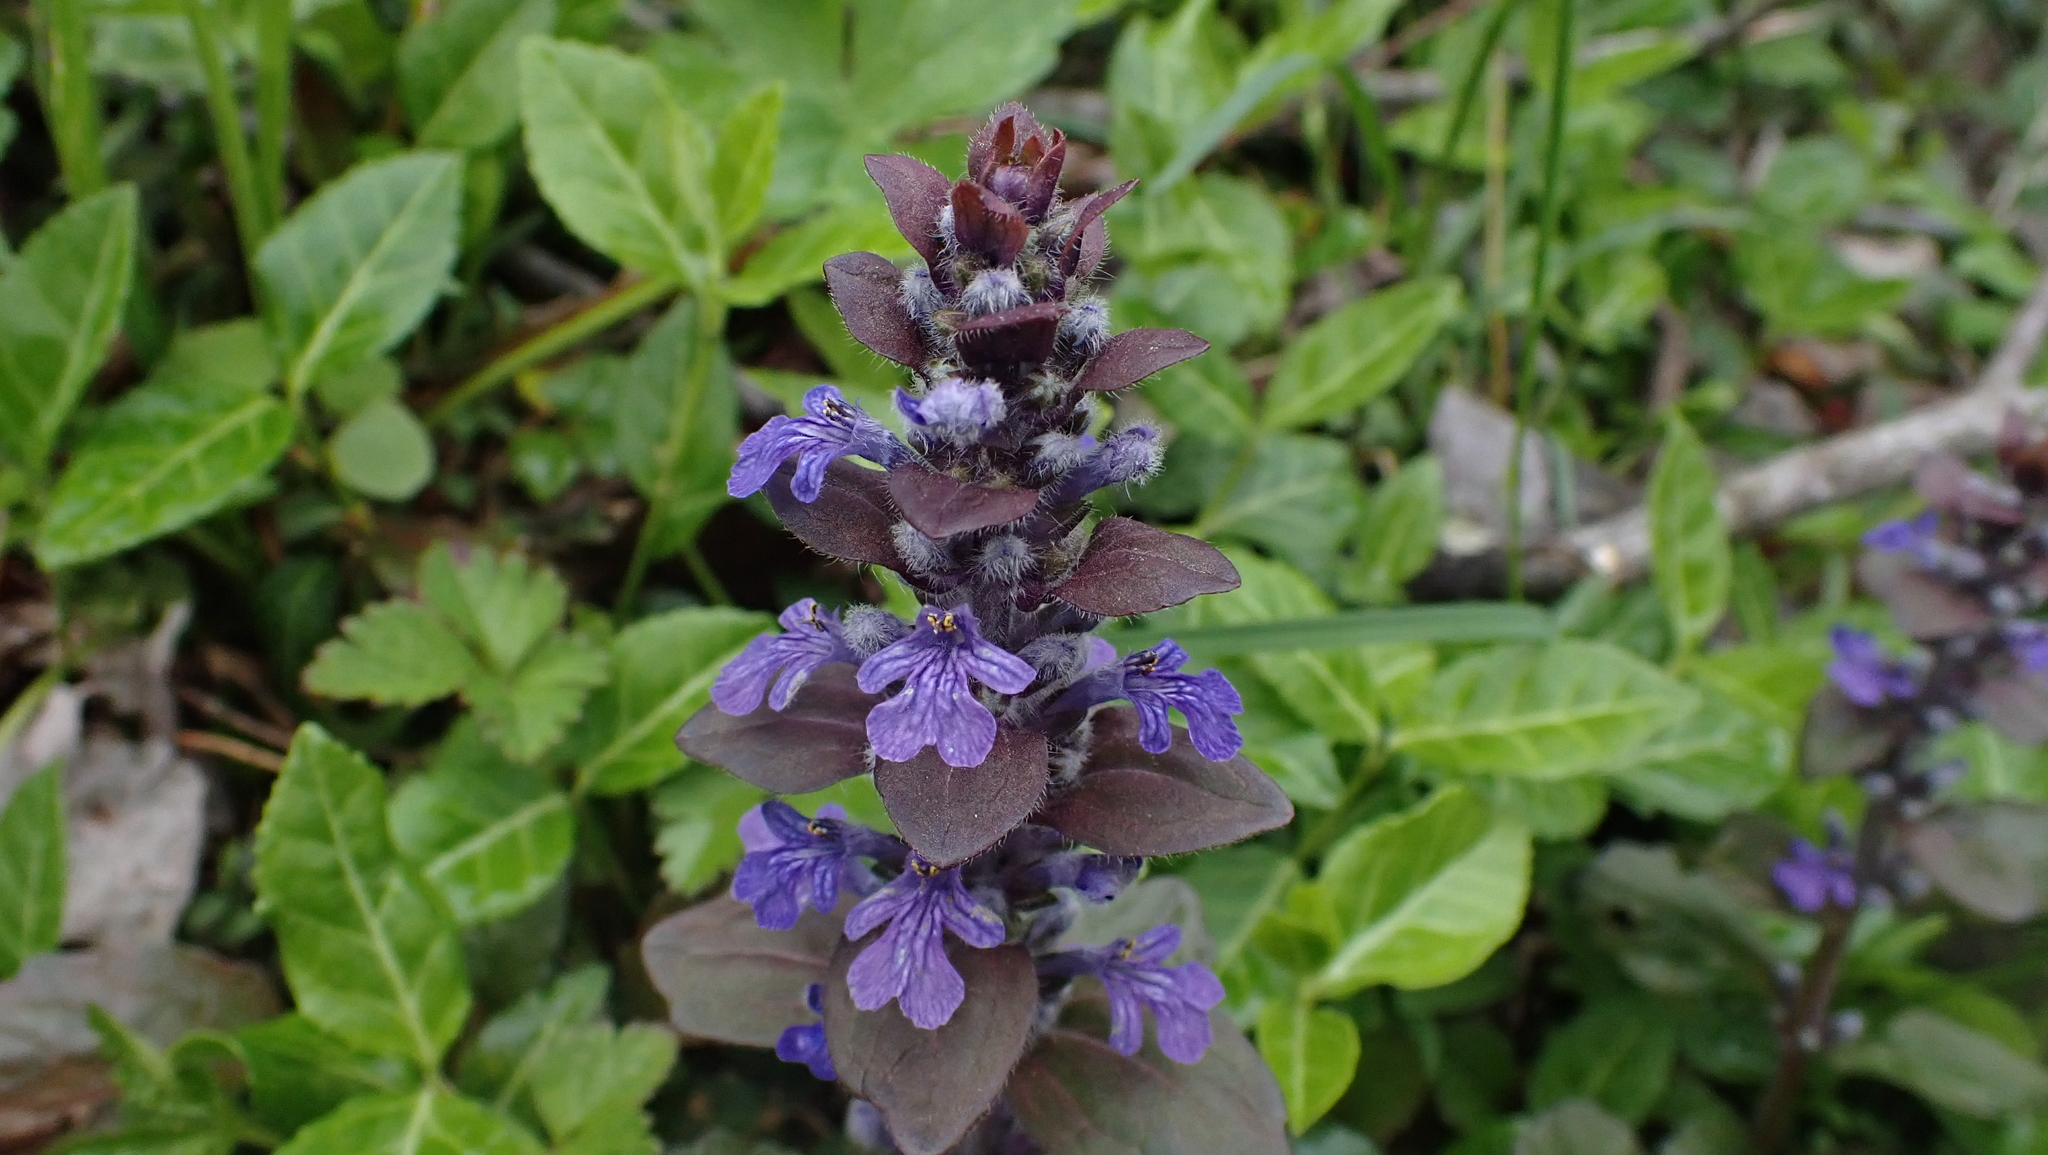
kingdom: Plantae
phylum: Tracheophyta
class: Magnoliopsida
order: Lamiales
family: Lamiaceae
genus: Ajuga
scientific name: Ajuga reptans
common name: Bugle
